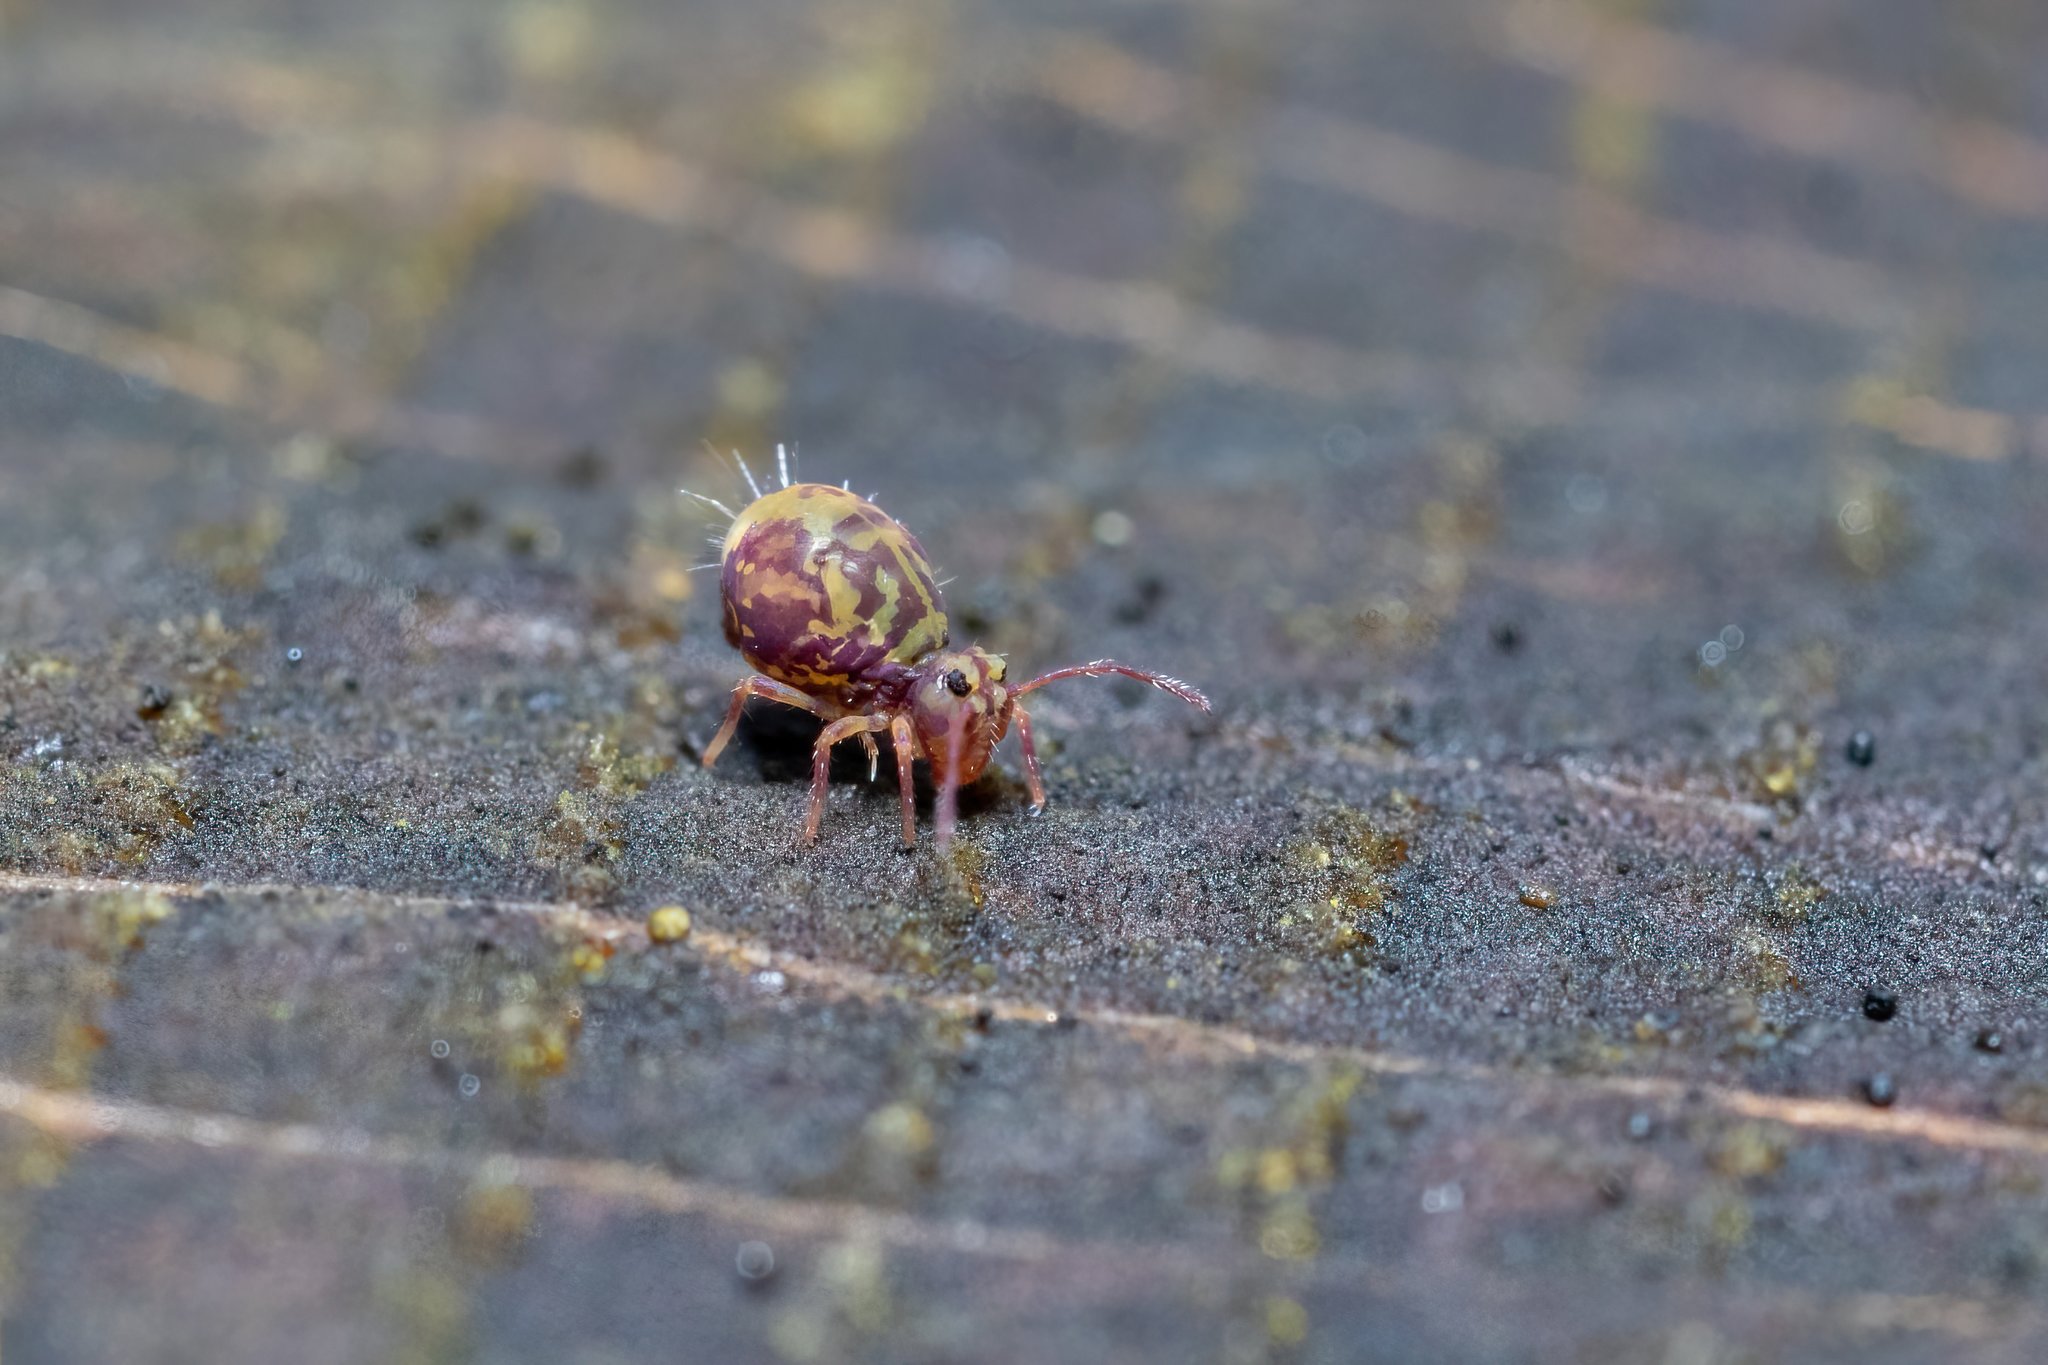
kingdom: Animalia
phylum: Arthropoda
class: Collembola
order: Symphypleona
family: Dicyrtomidae
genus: Dicyrtomina
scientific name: Dicyrtomina ornata
